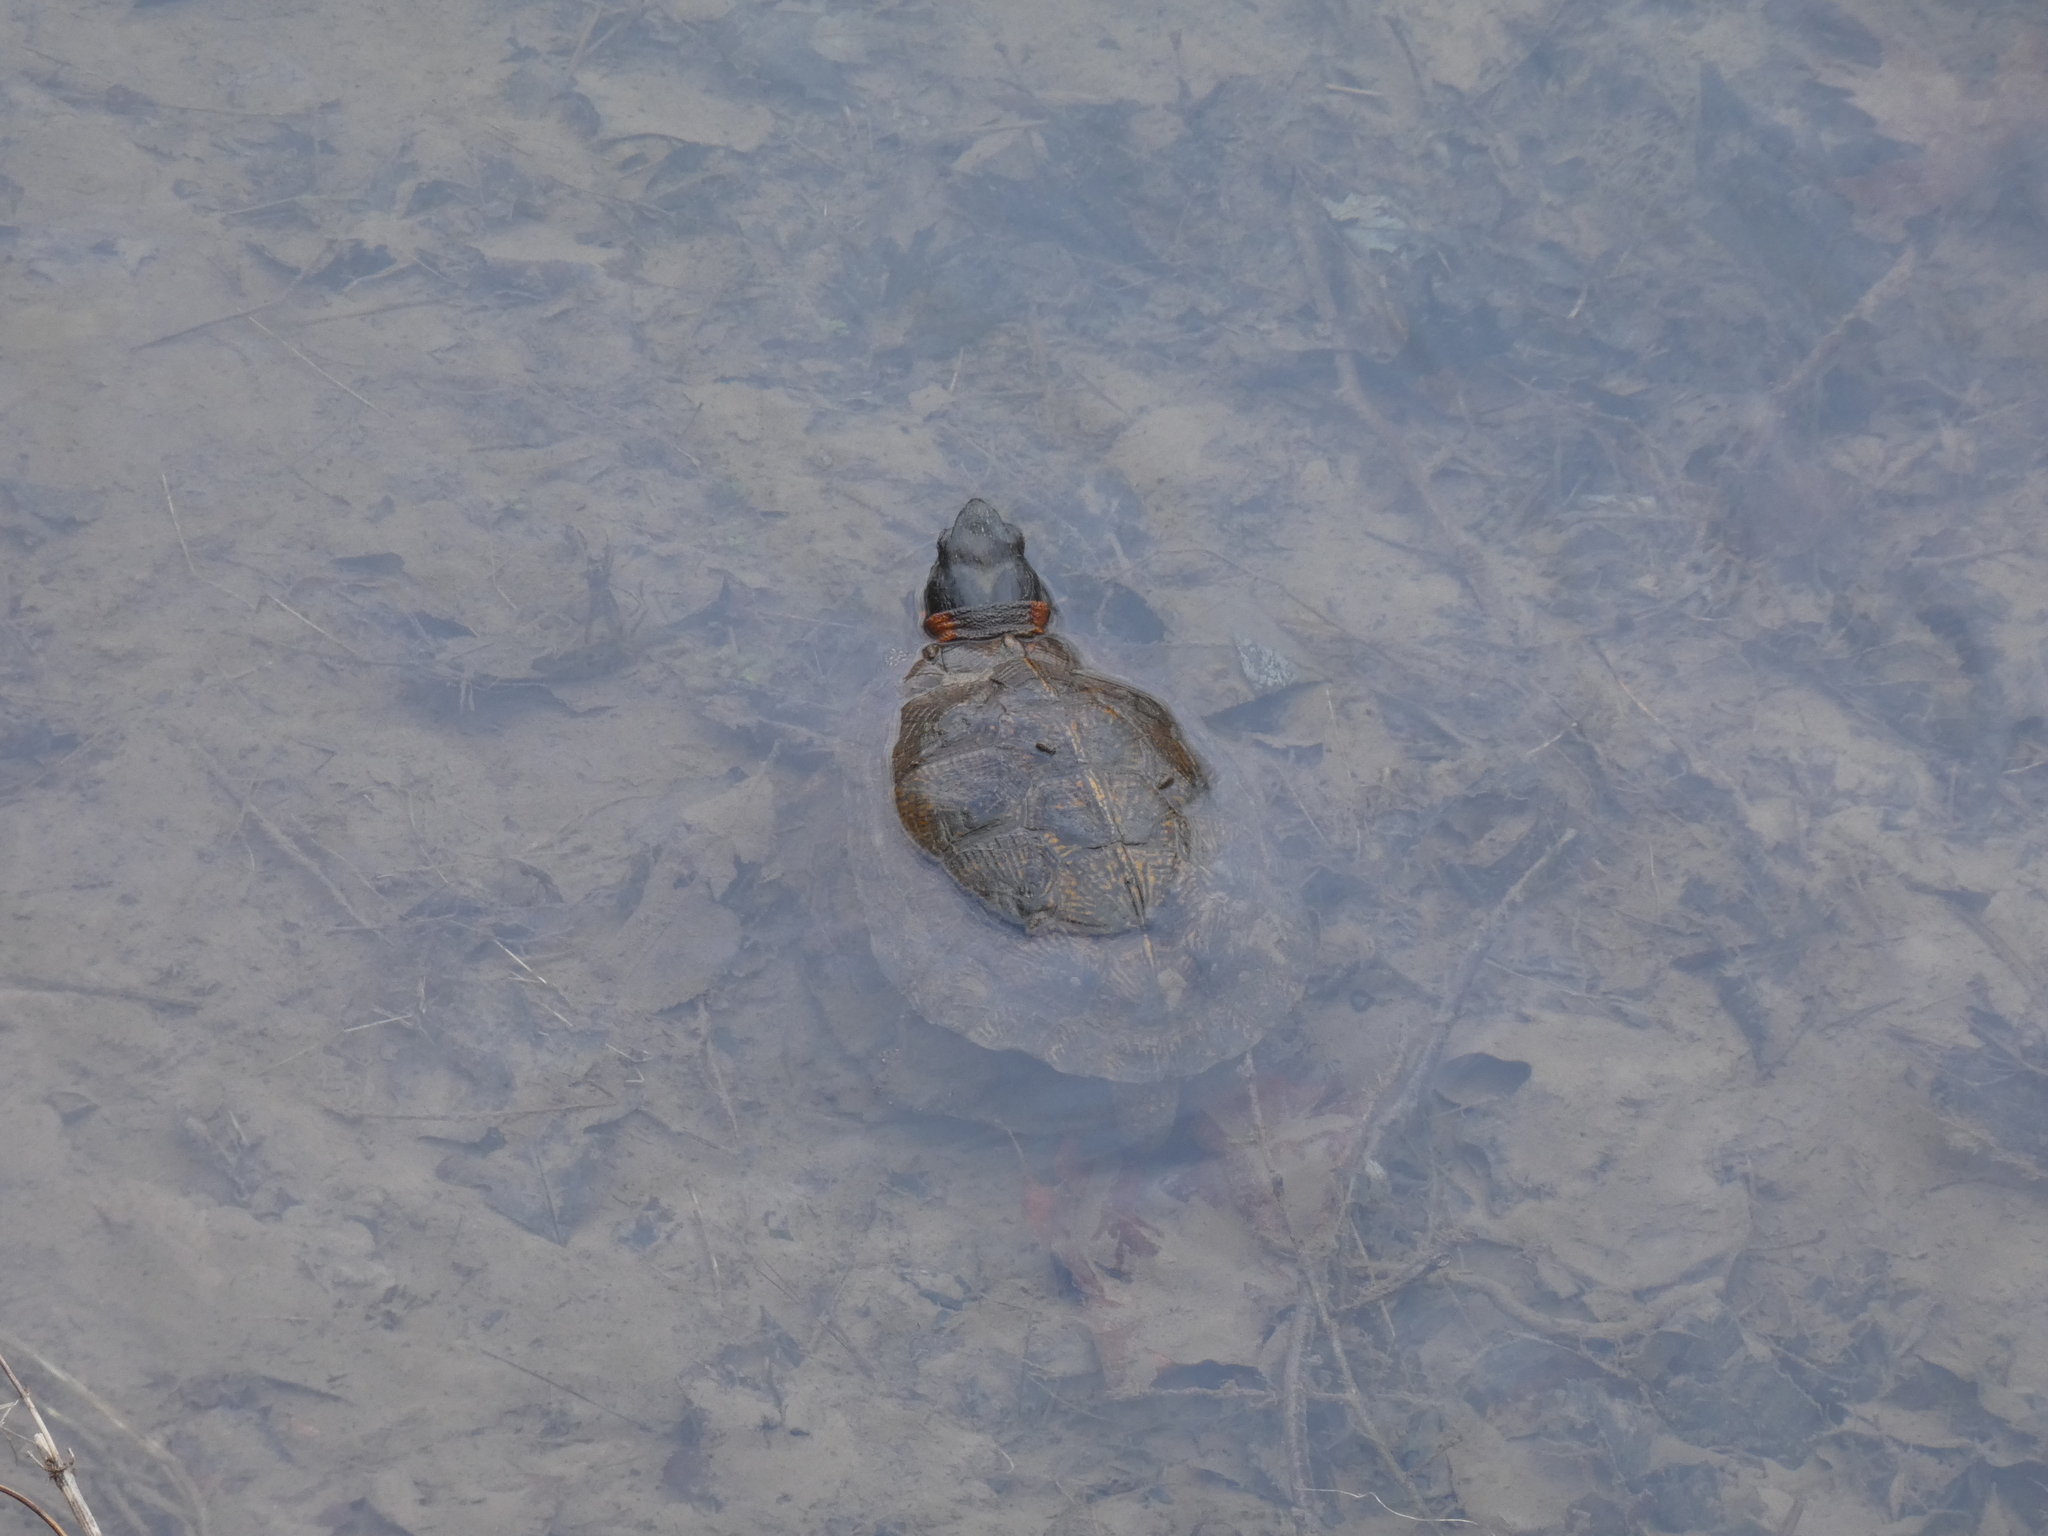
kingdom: Animalia
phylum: Chordata
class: Testudines
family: Emydidae
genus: Glyptemys
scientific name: Glyptemys insculpta
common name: Wood turtle
